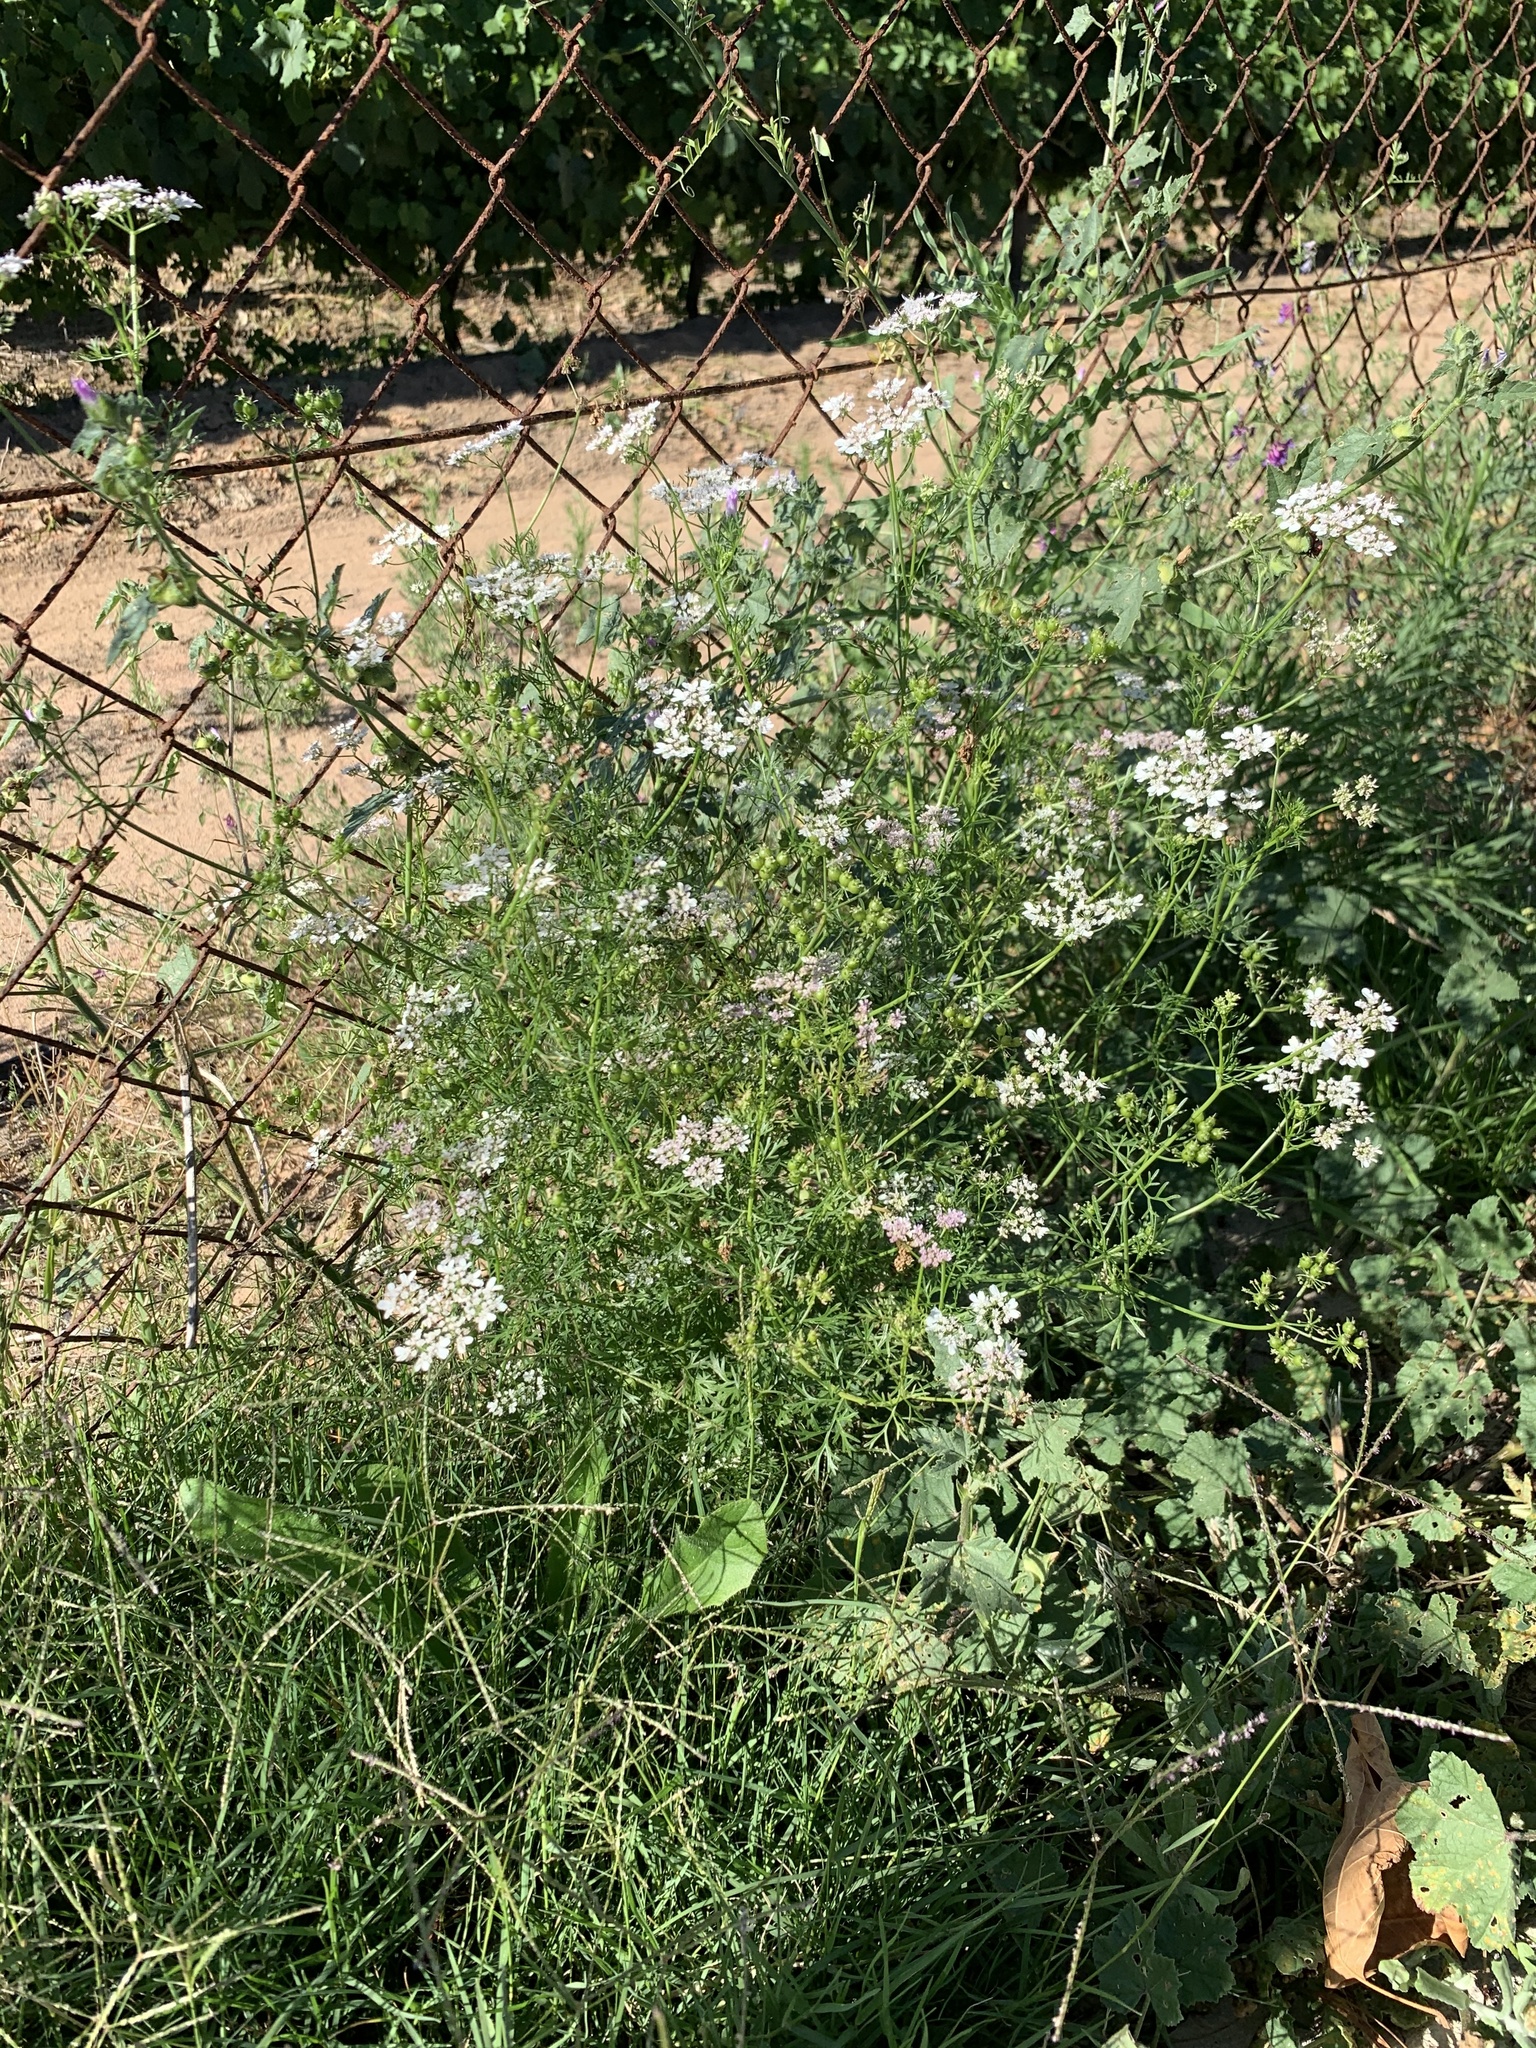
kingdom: Plantae
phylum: Tracheophyta
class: Magnoliopsida
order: Apiales
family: Apiaceae
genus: Coriandrum
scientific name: Coriandrum sativum
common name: Coriander
